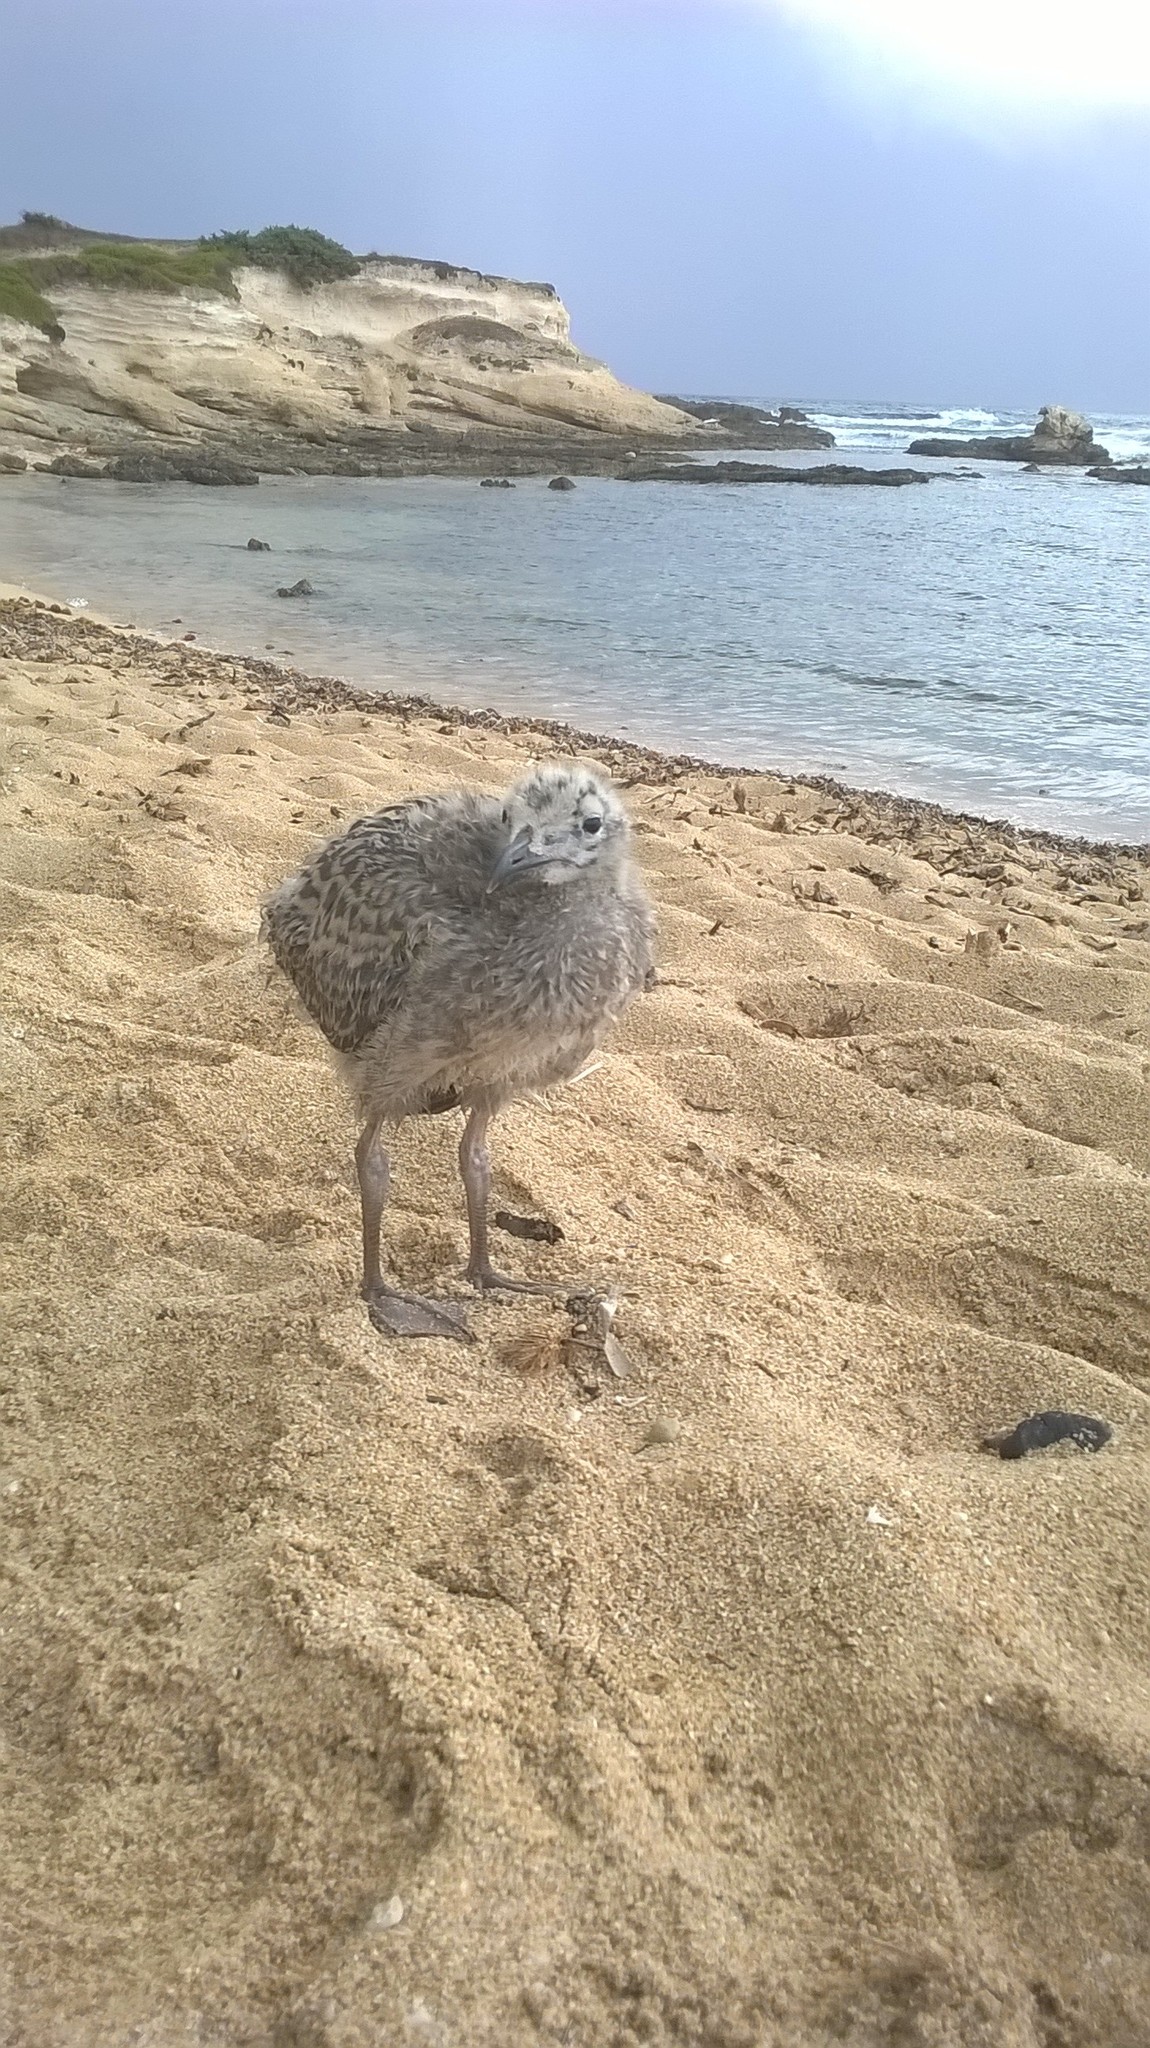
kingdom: Animalia
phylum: Chordata
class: Aves
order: Charadriiformes
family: Laridae
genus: Larus
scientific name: Larus michahellis
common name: Yellow-legged gull
